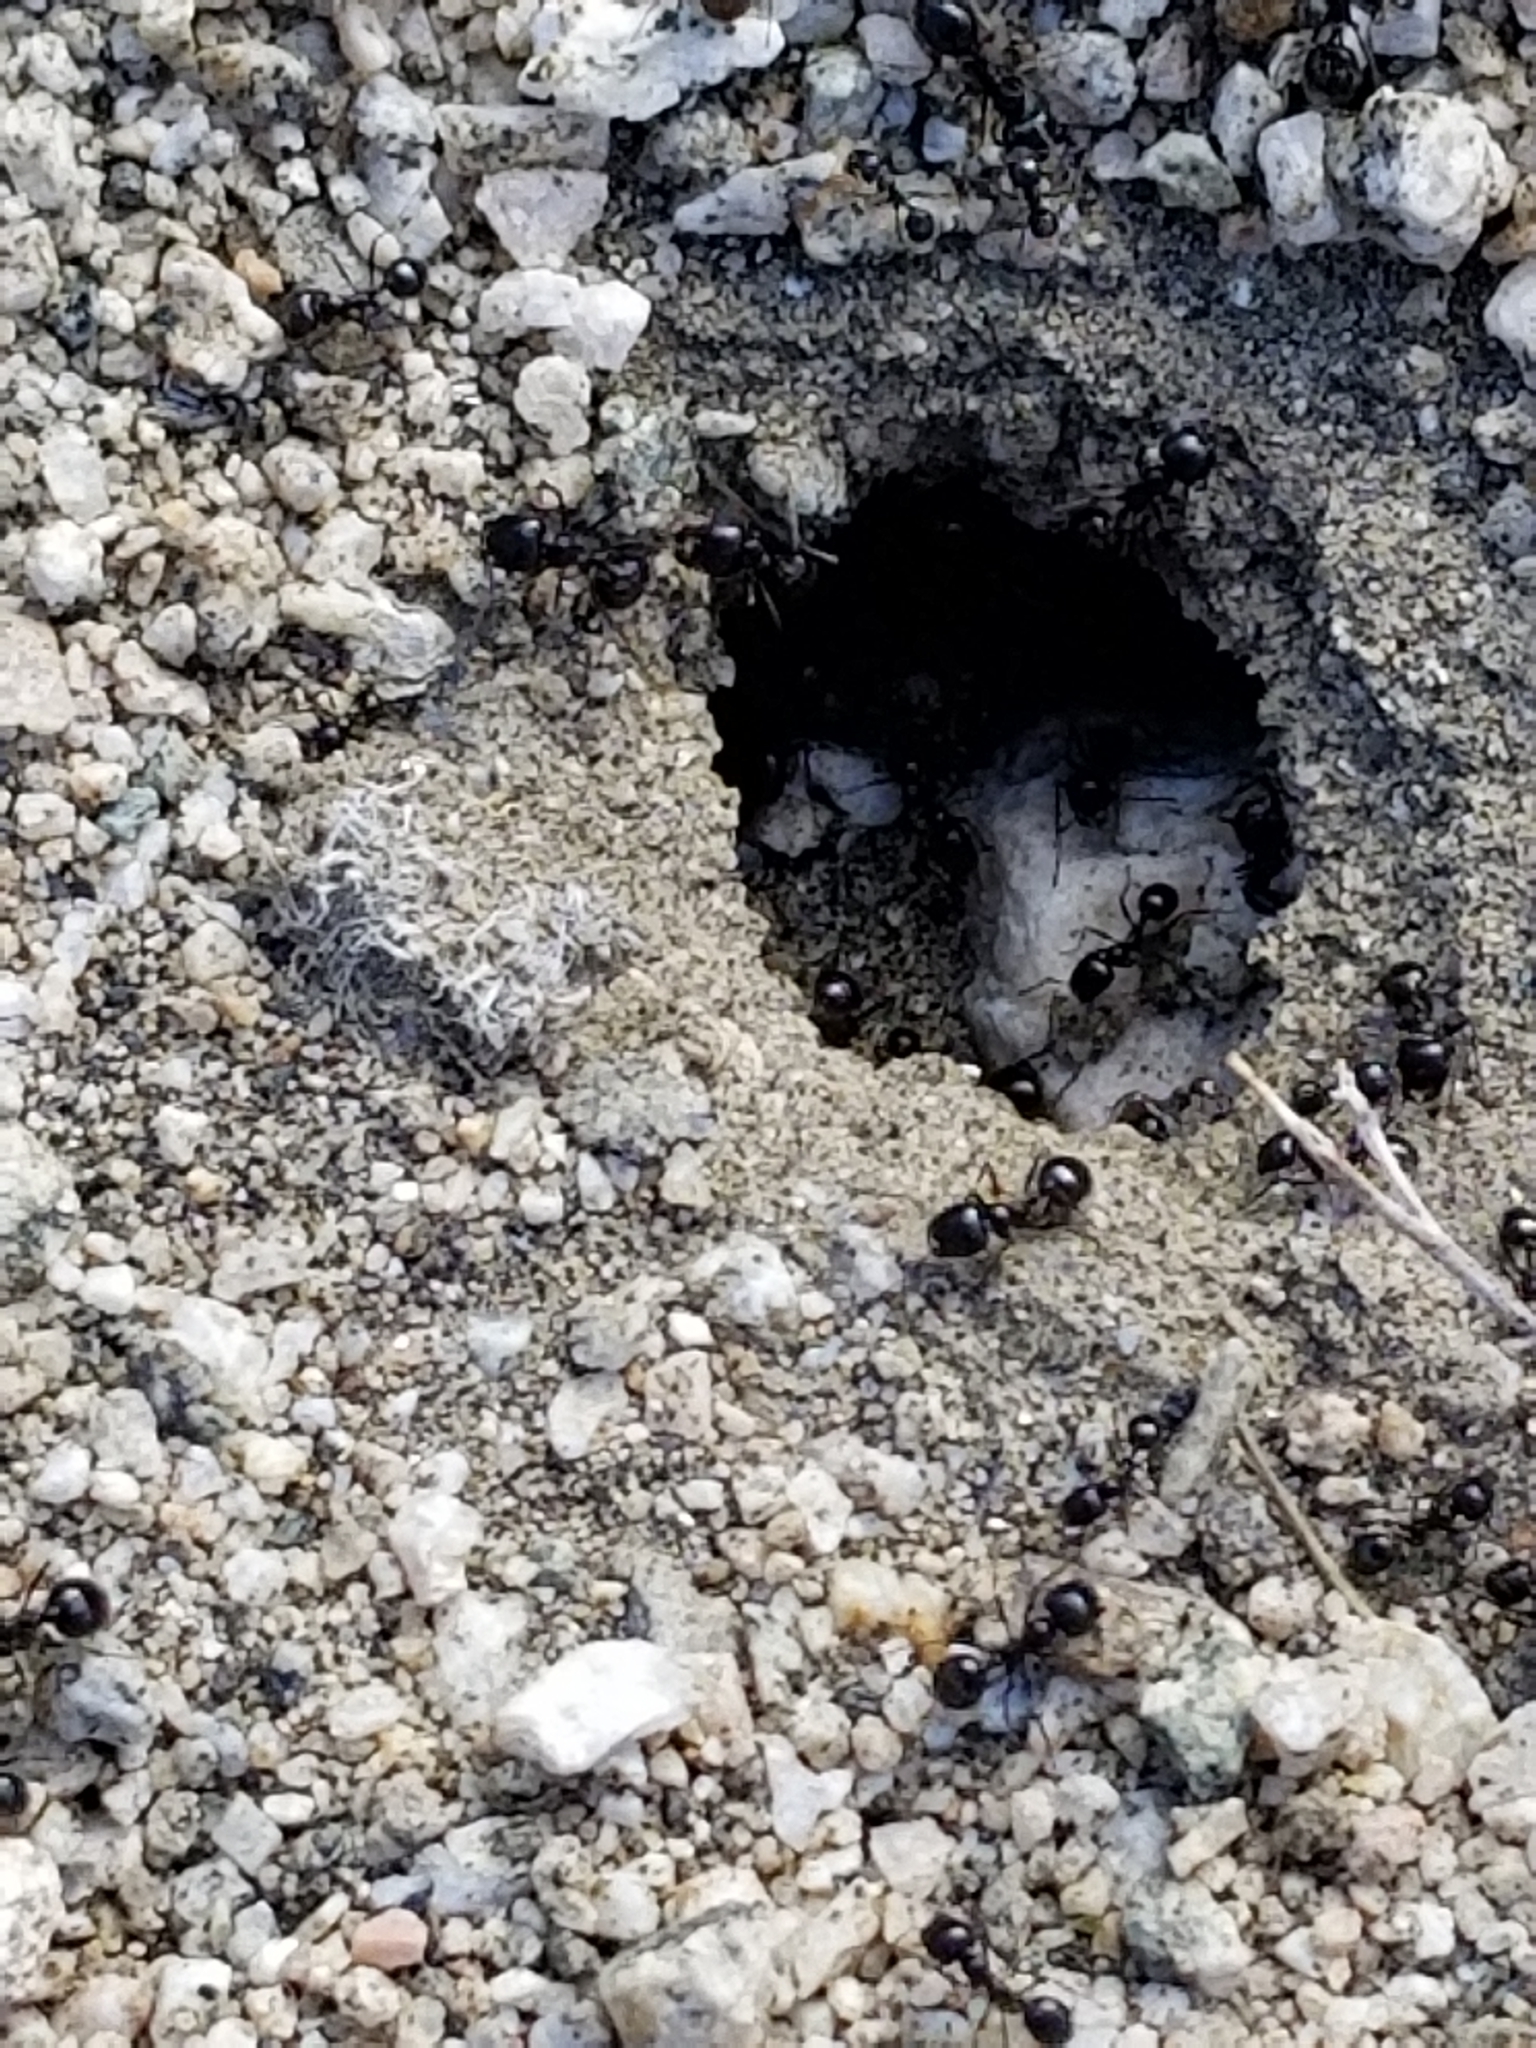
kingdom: Animalia
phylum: Arthropoda
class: Insecta
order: Hymenoptera
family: Formicidae
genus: Messor
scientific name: Messor pergandei
